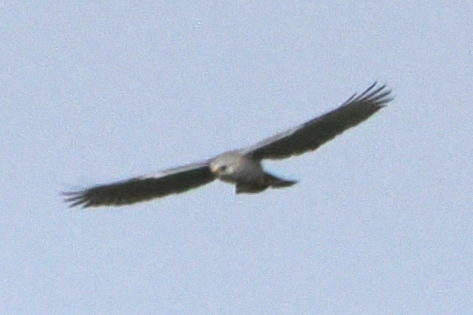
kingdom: Animalia
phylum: Chordata
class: Aves
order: Accipitriformes
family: Accipitridae
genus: Buteo
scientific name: Buteo nitidus
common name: Grey-lined hawk
